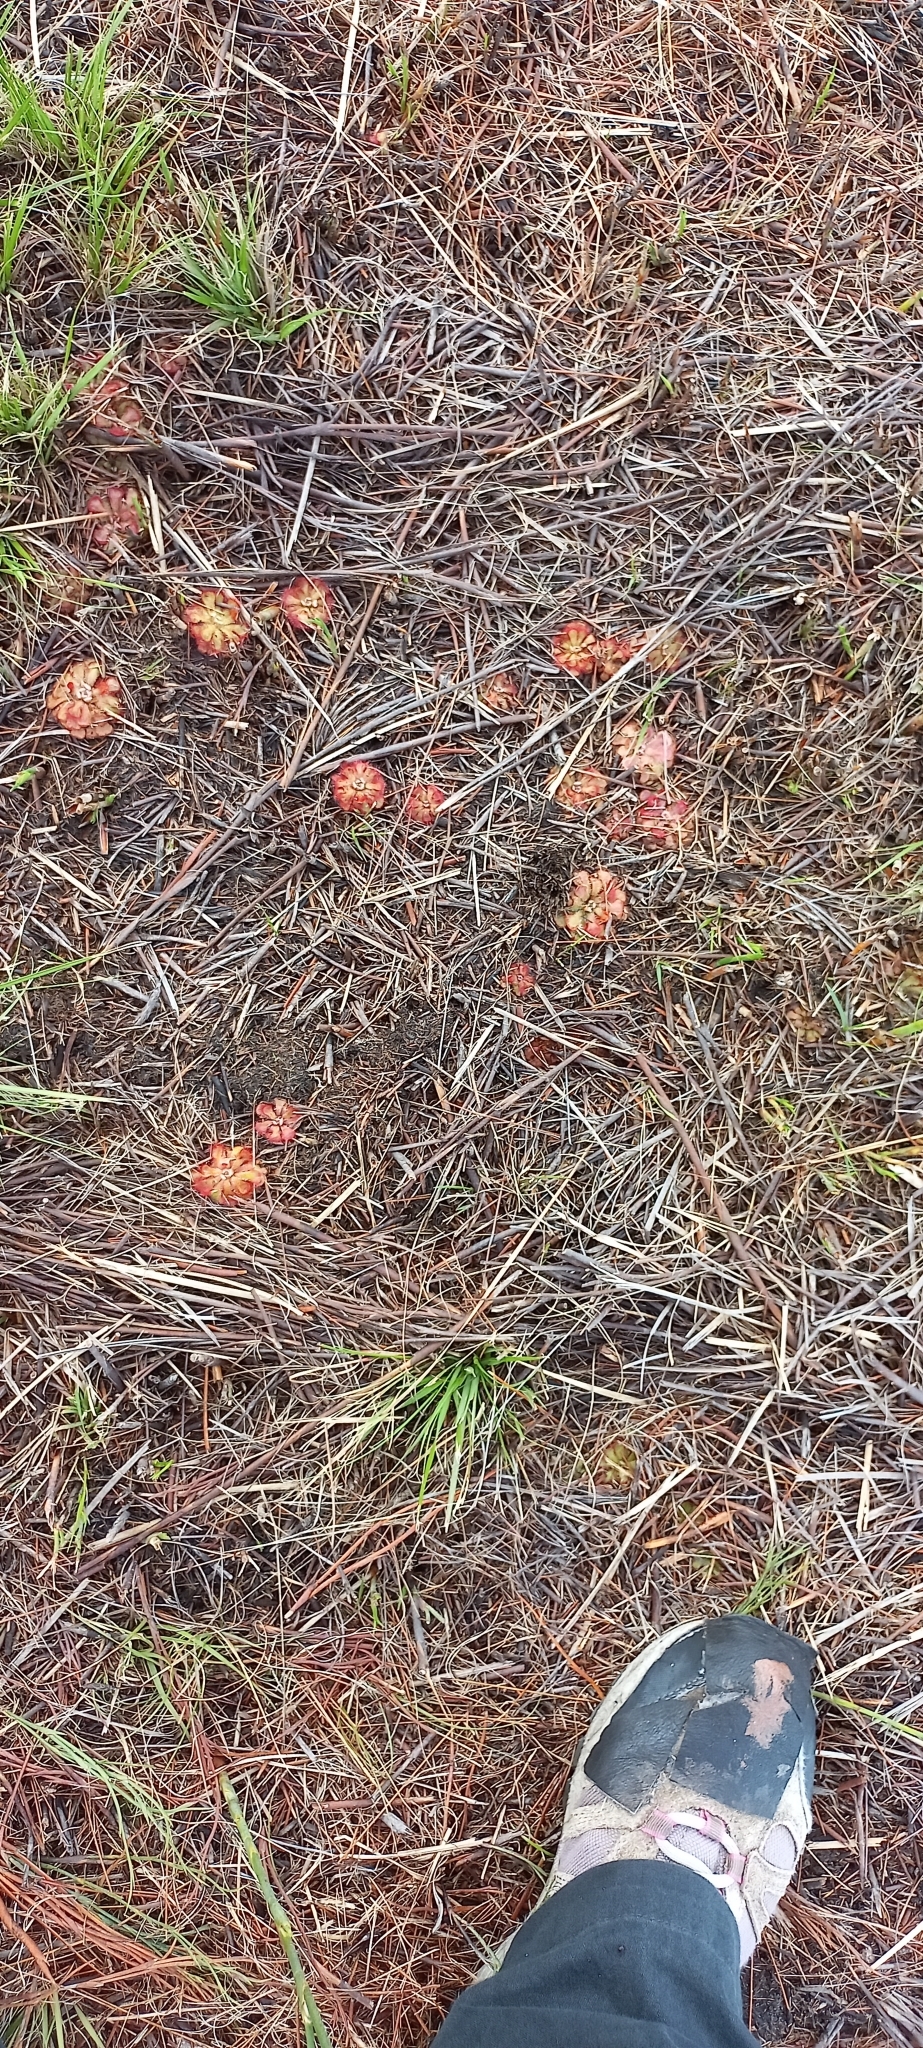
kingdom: Plantae
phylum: Tracheophyta
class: Magnoliopsida
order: Caryophyllales
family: Droseraceae
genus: Drosera
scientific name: Drosera aliciae
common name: Alice sundew
